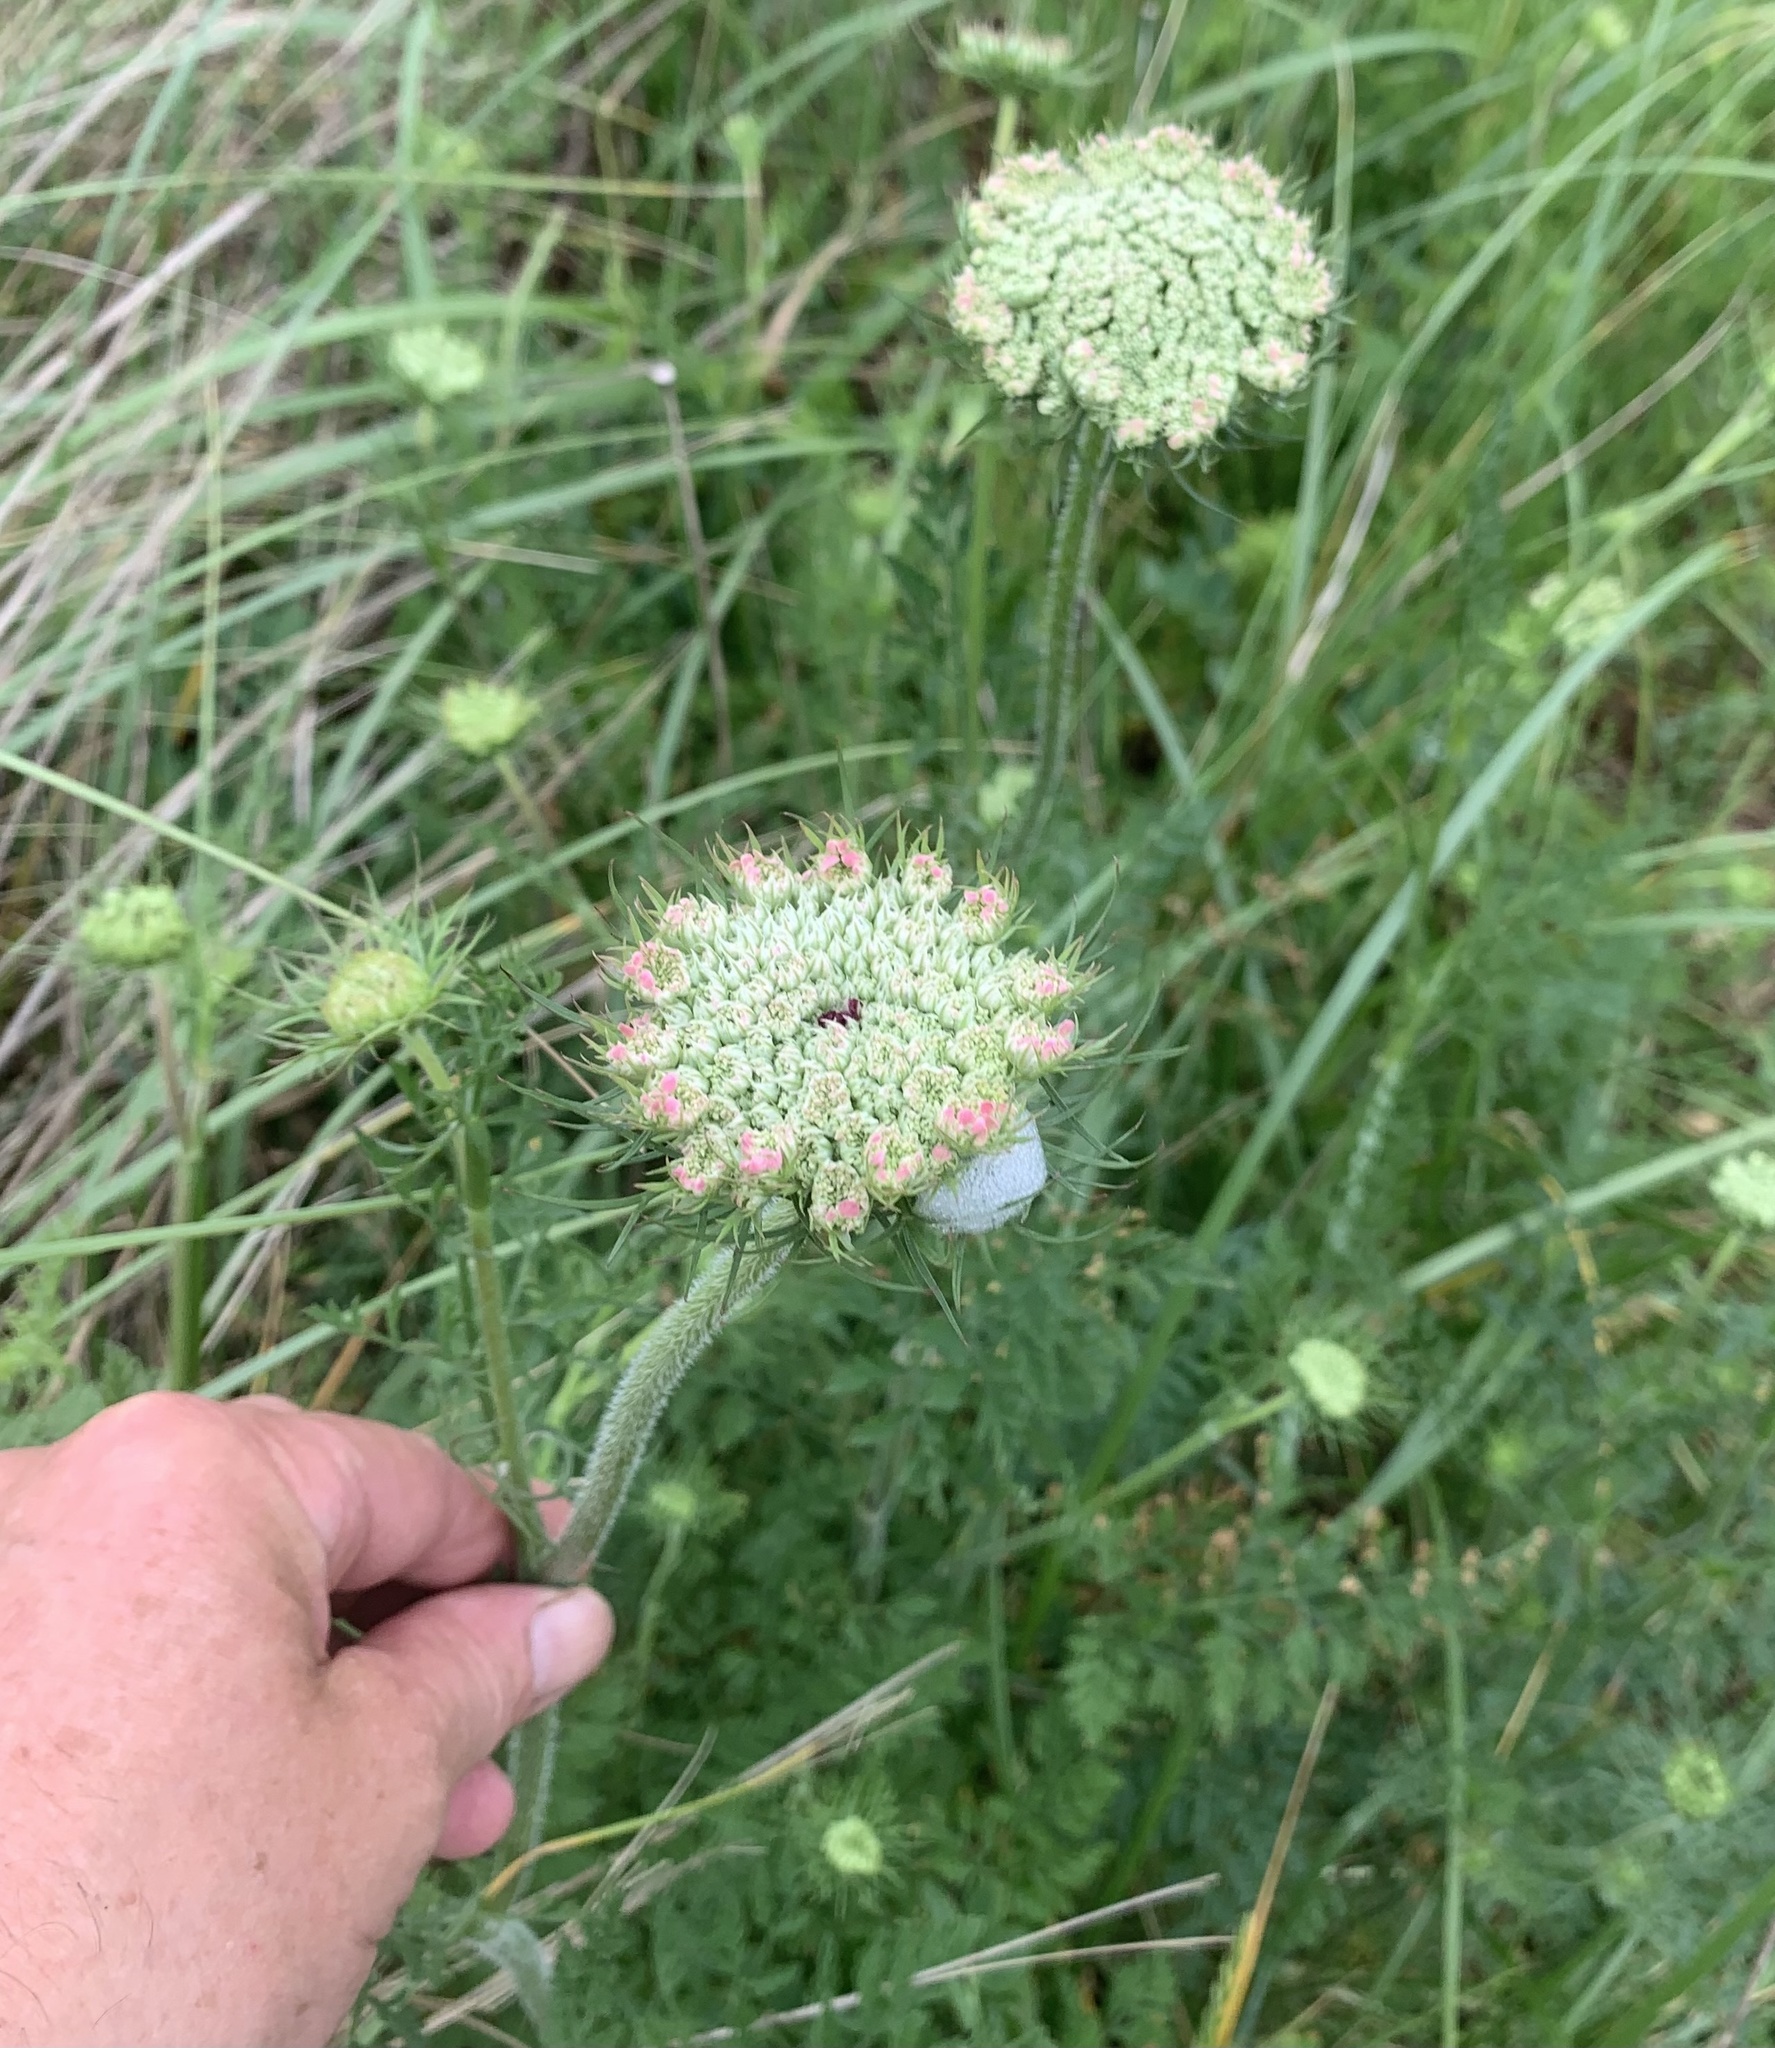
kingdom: Plantae
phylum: Tracheophyta
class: Magnoliopsida
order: Apiales
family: Apiaceae
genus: Daucus
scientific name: Daucus carota
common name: Wild carrot
